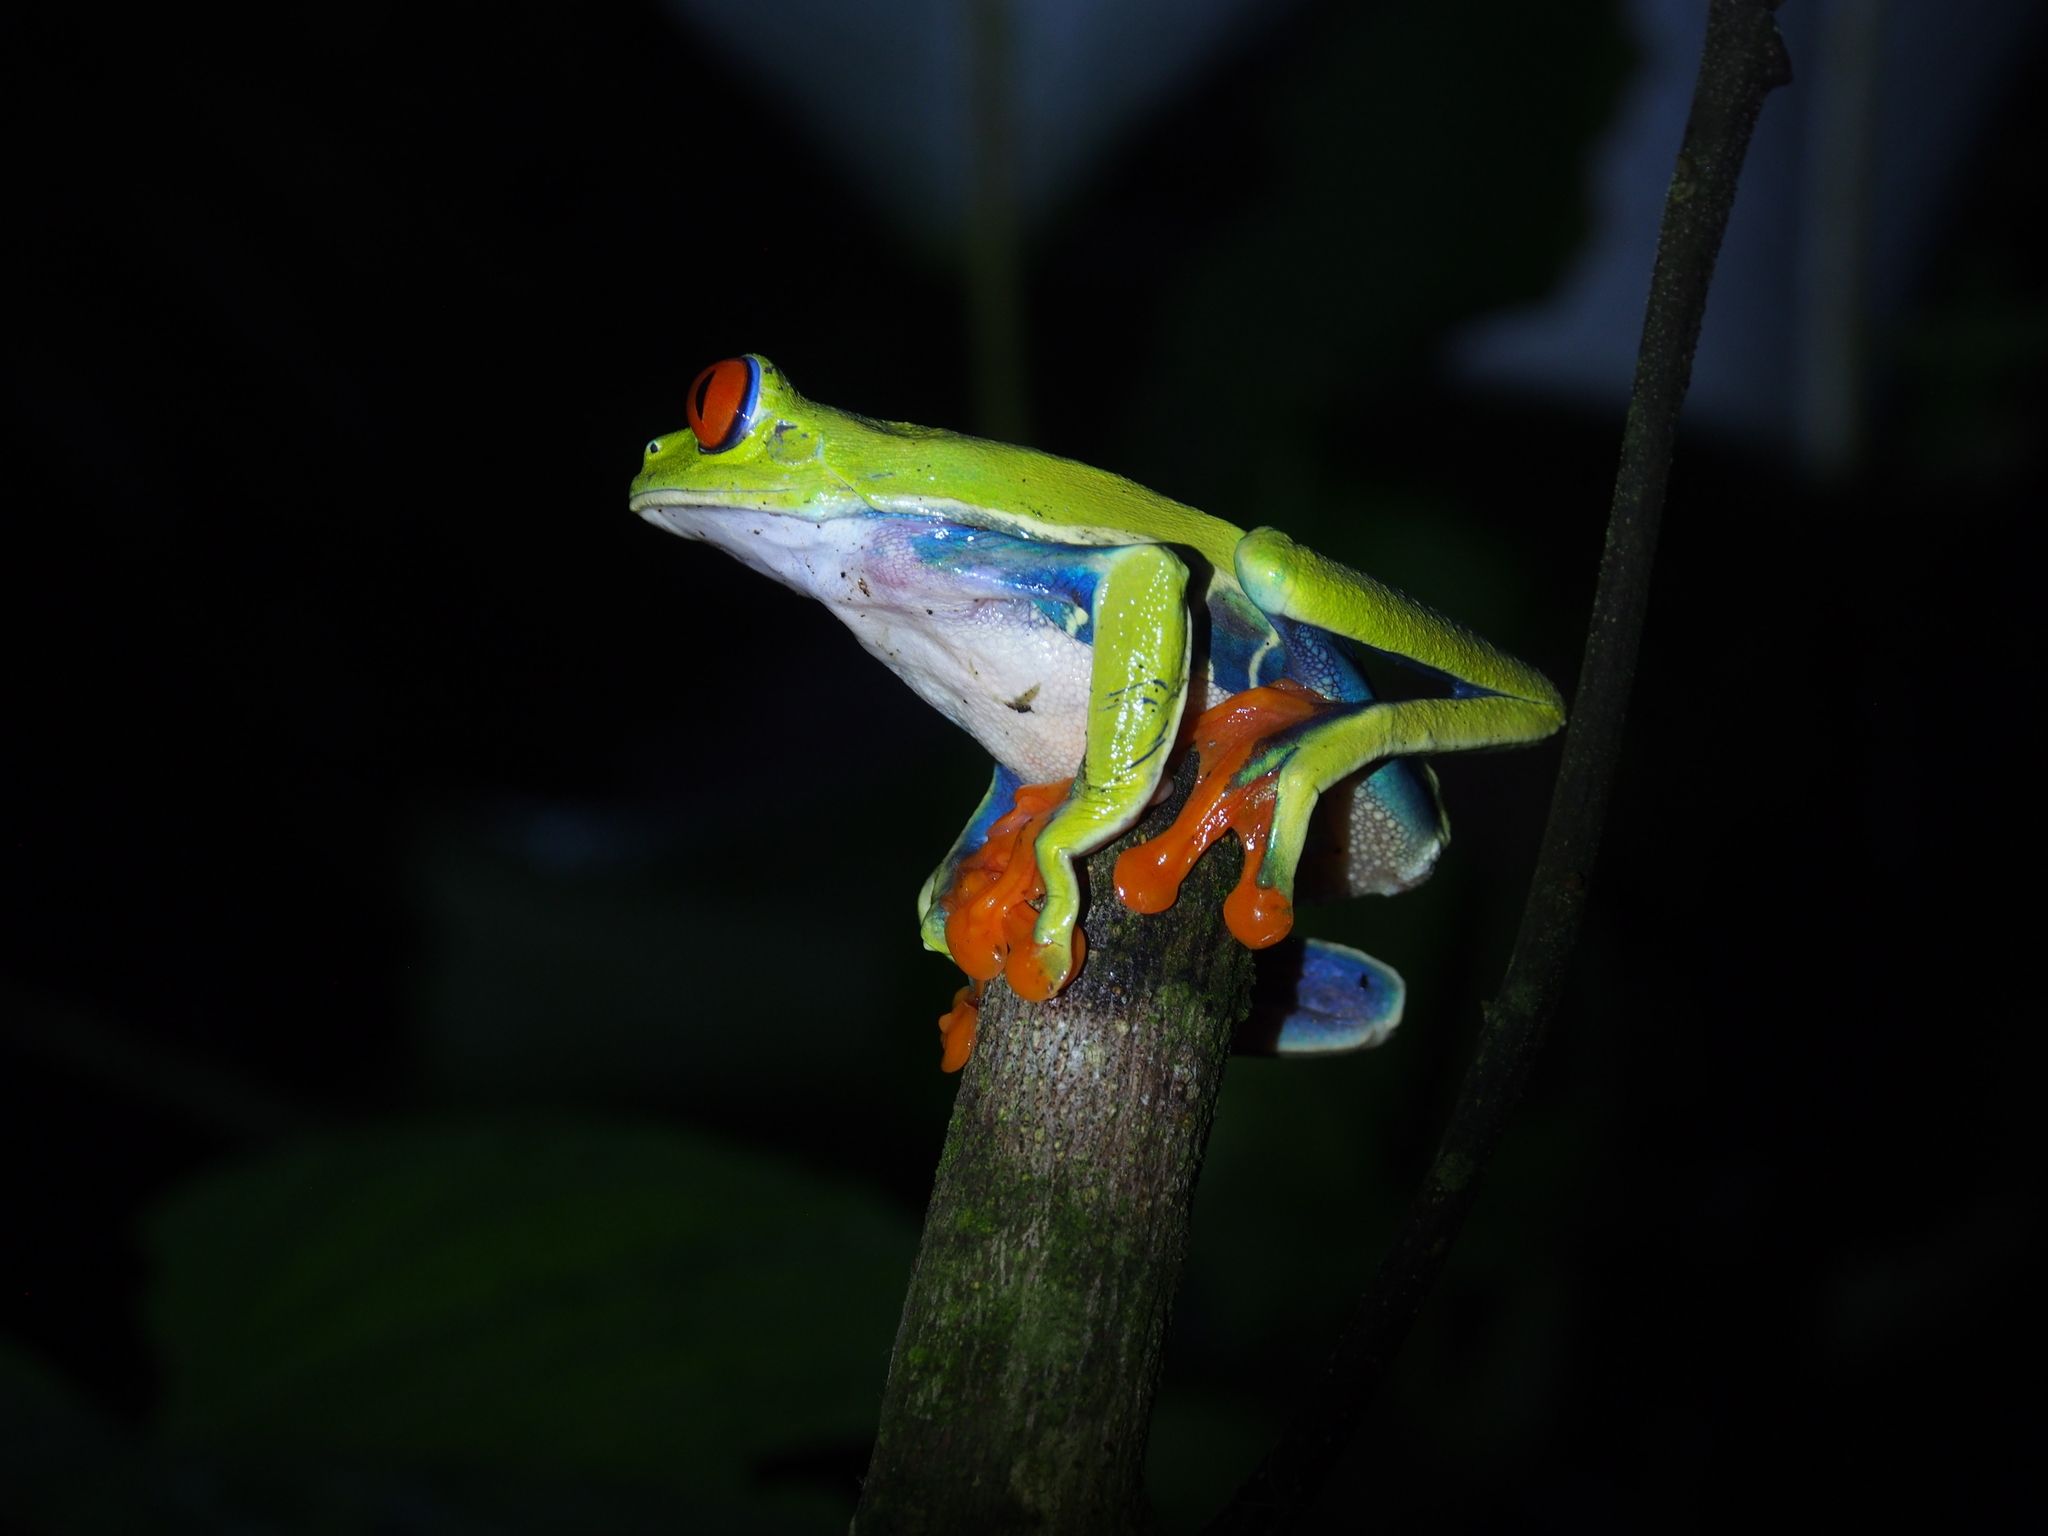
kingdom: Animalia
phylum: Chordata
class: Amphibia
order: Anura
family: Phyllomedusidae
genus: Agalychnis
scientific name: Agalychnis callidryas
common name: Red-eyed treefrog
